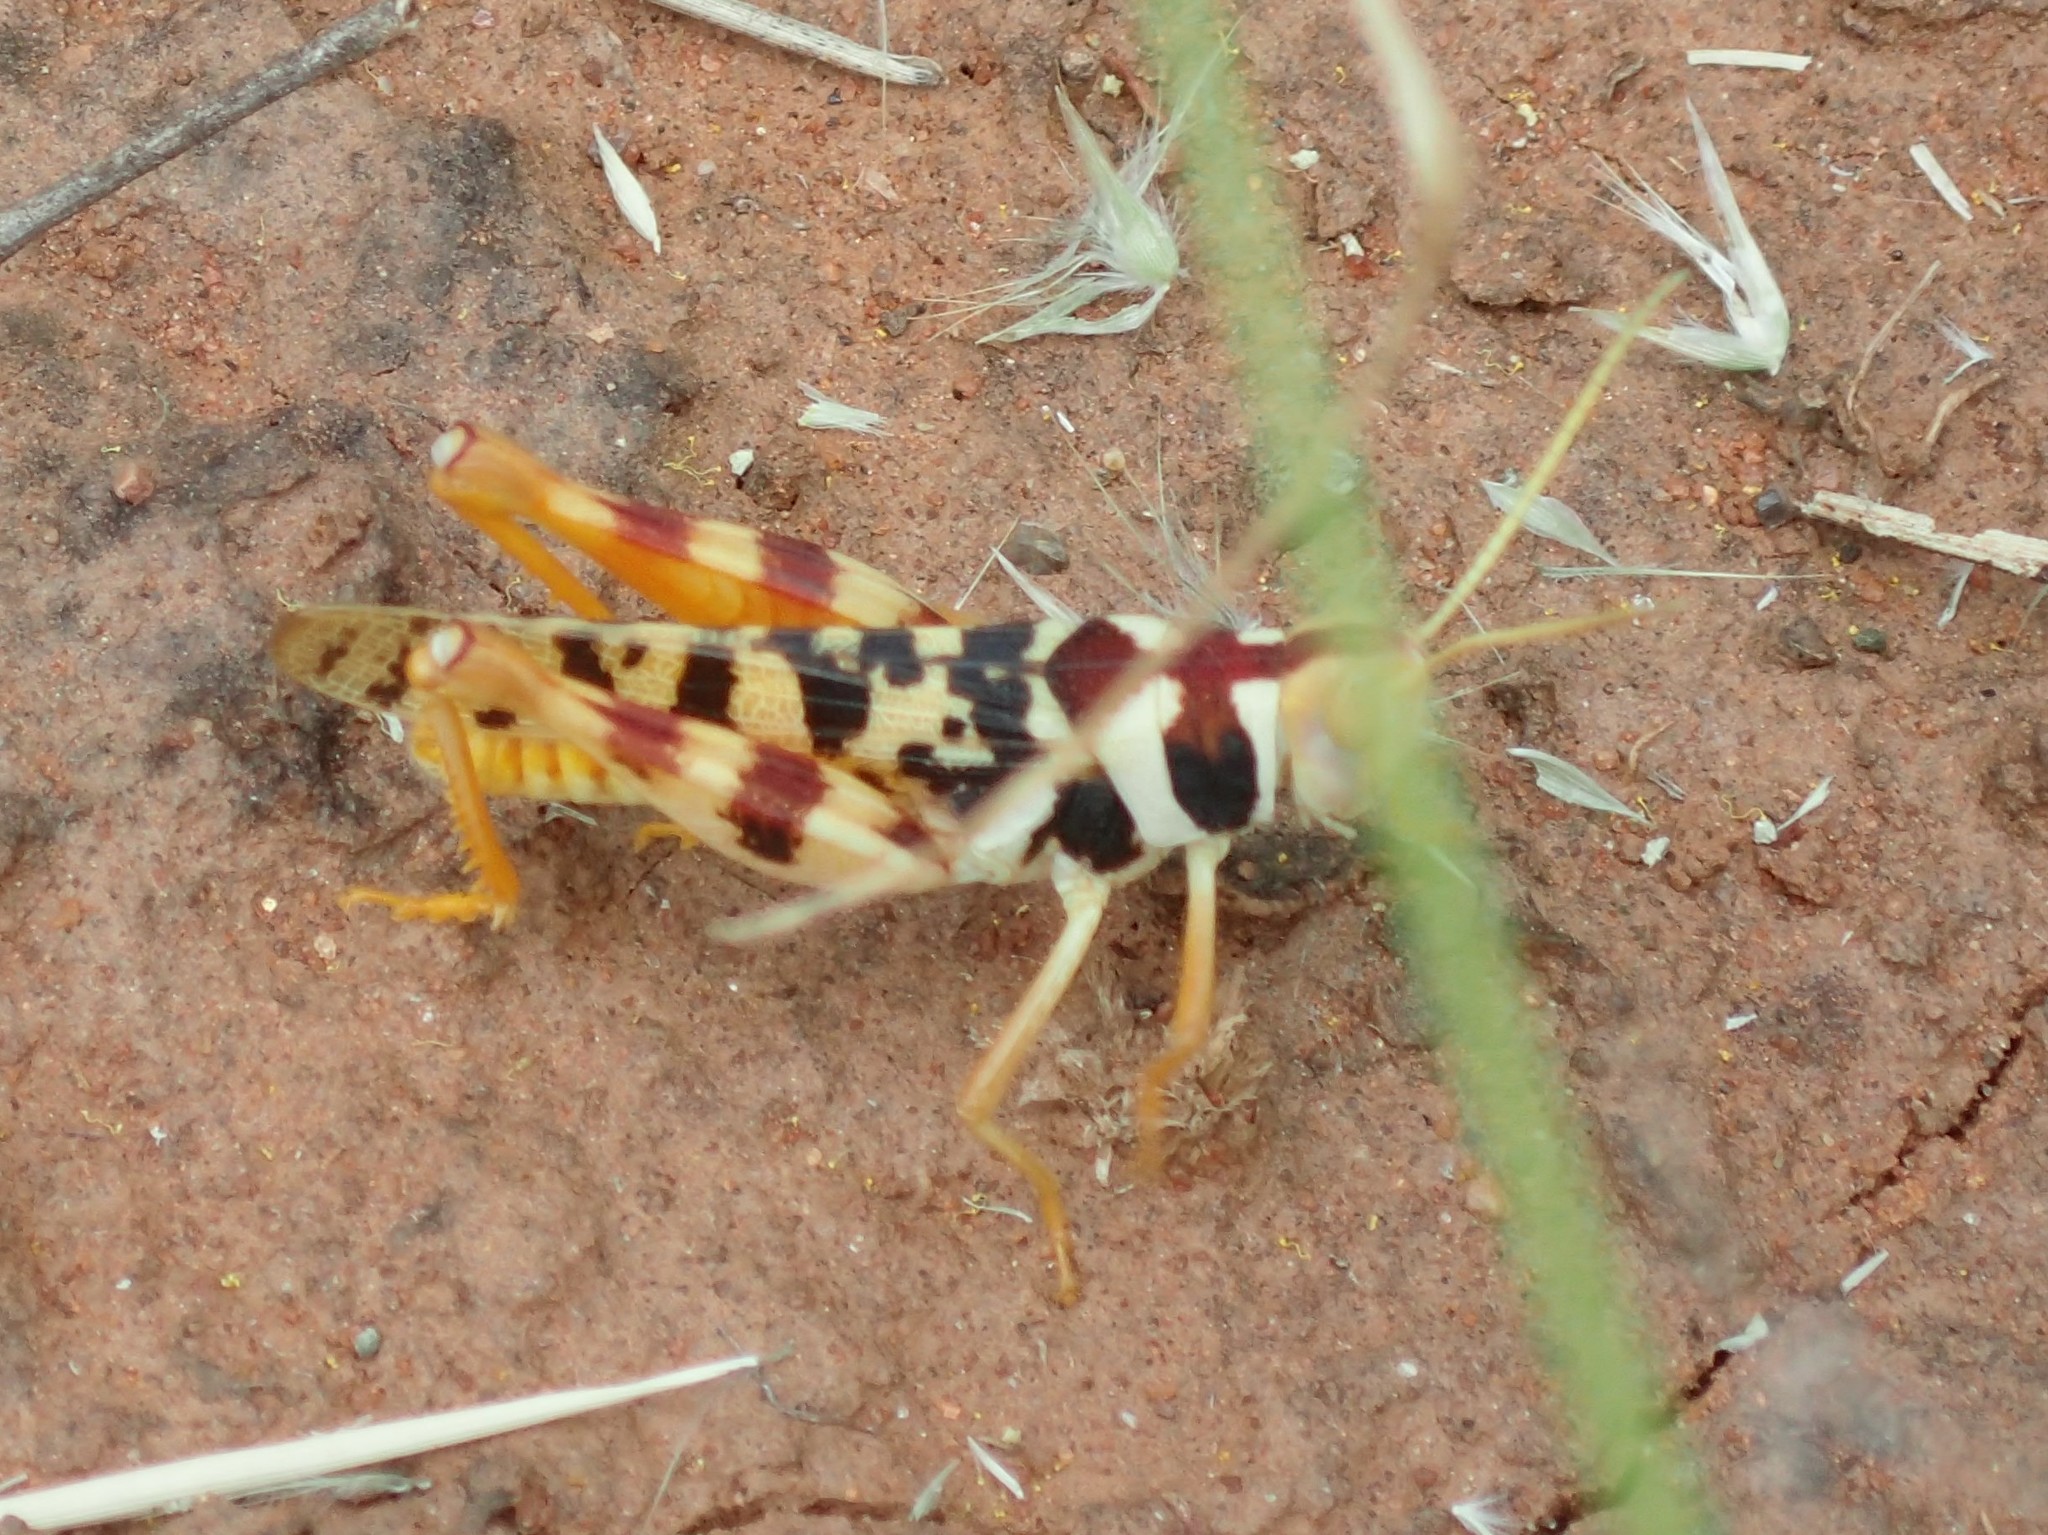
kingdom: Animalia
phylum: Arthropoda
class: Insecta
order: Orthoptera
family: Acrididae
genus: Stropis
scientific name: Stropis maculosa
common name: Leopard grasshopper
